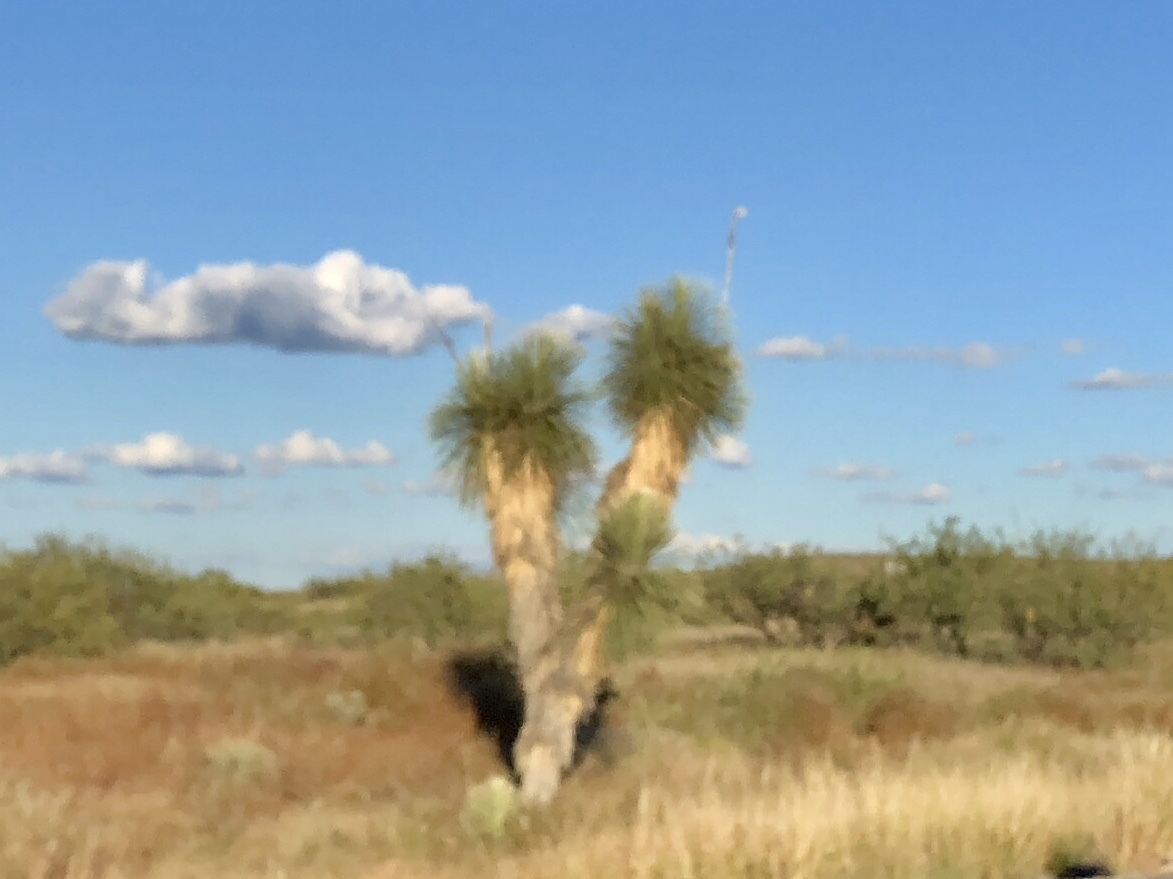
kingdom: Plantae
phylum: Tracheophyta
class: Liliopsida
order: Asparagales
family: Asparagaceae
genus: Yucca
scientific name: Yucca elata
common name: Palmella
